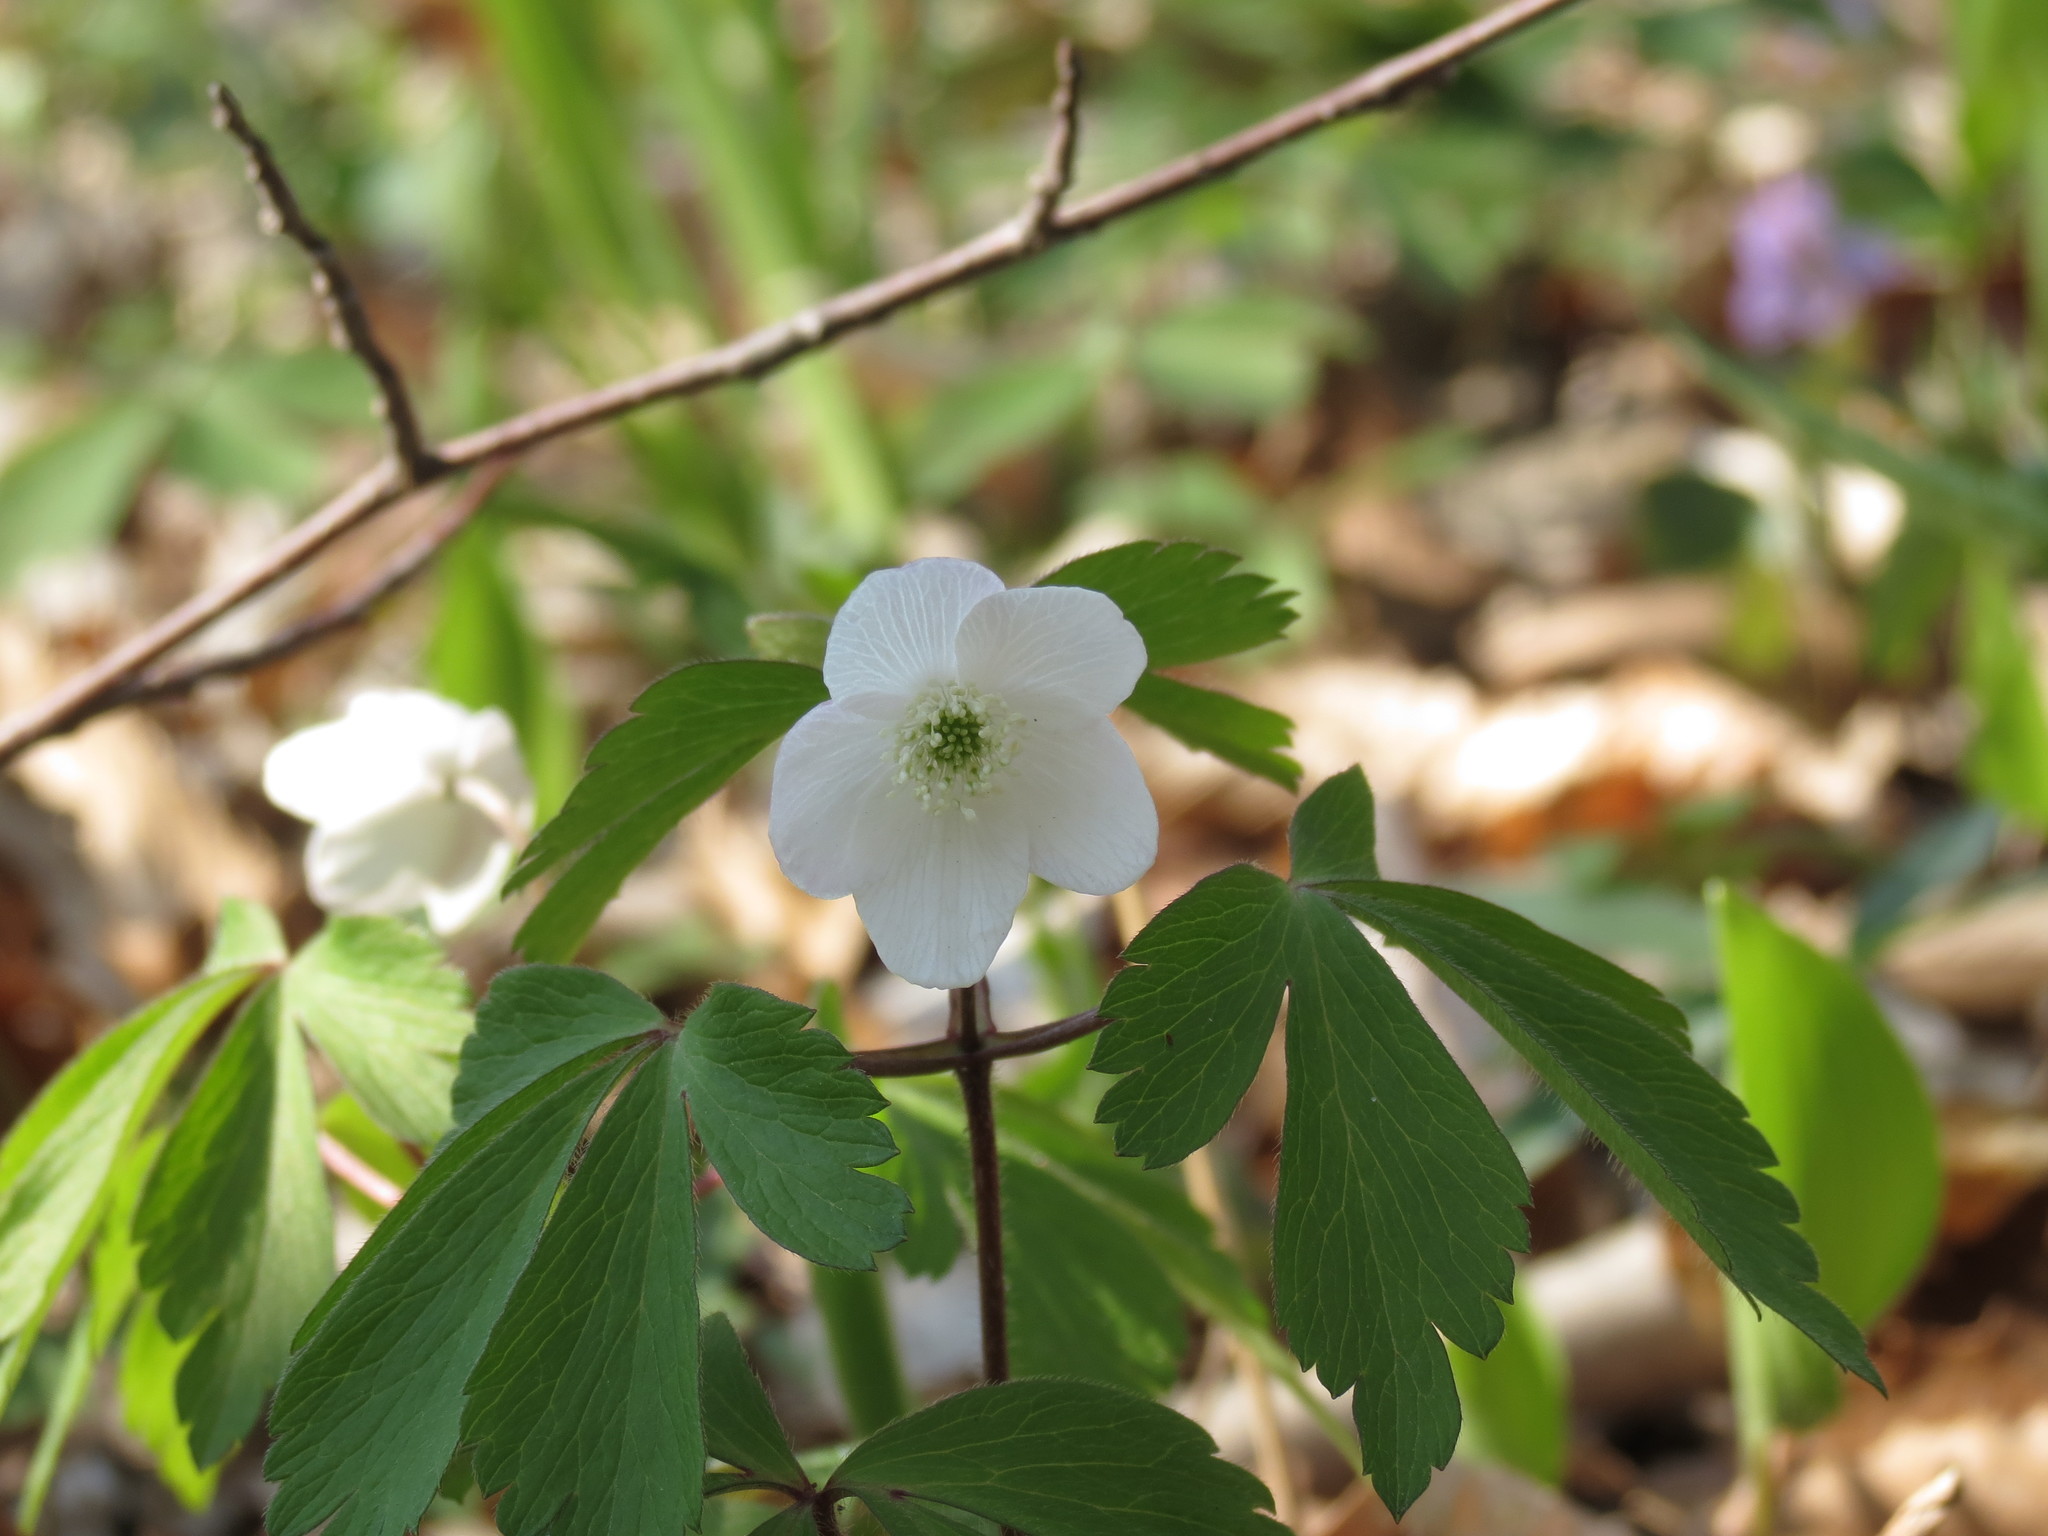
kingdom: Plantae
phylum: Tracheophyta
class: Magnoliopsida
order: Ranunculales
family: Ranunculaceae
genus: Anemone
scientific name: Anemone quinquefolia
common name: Wood anemone
